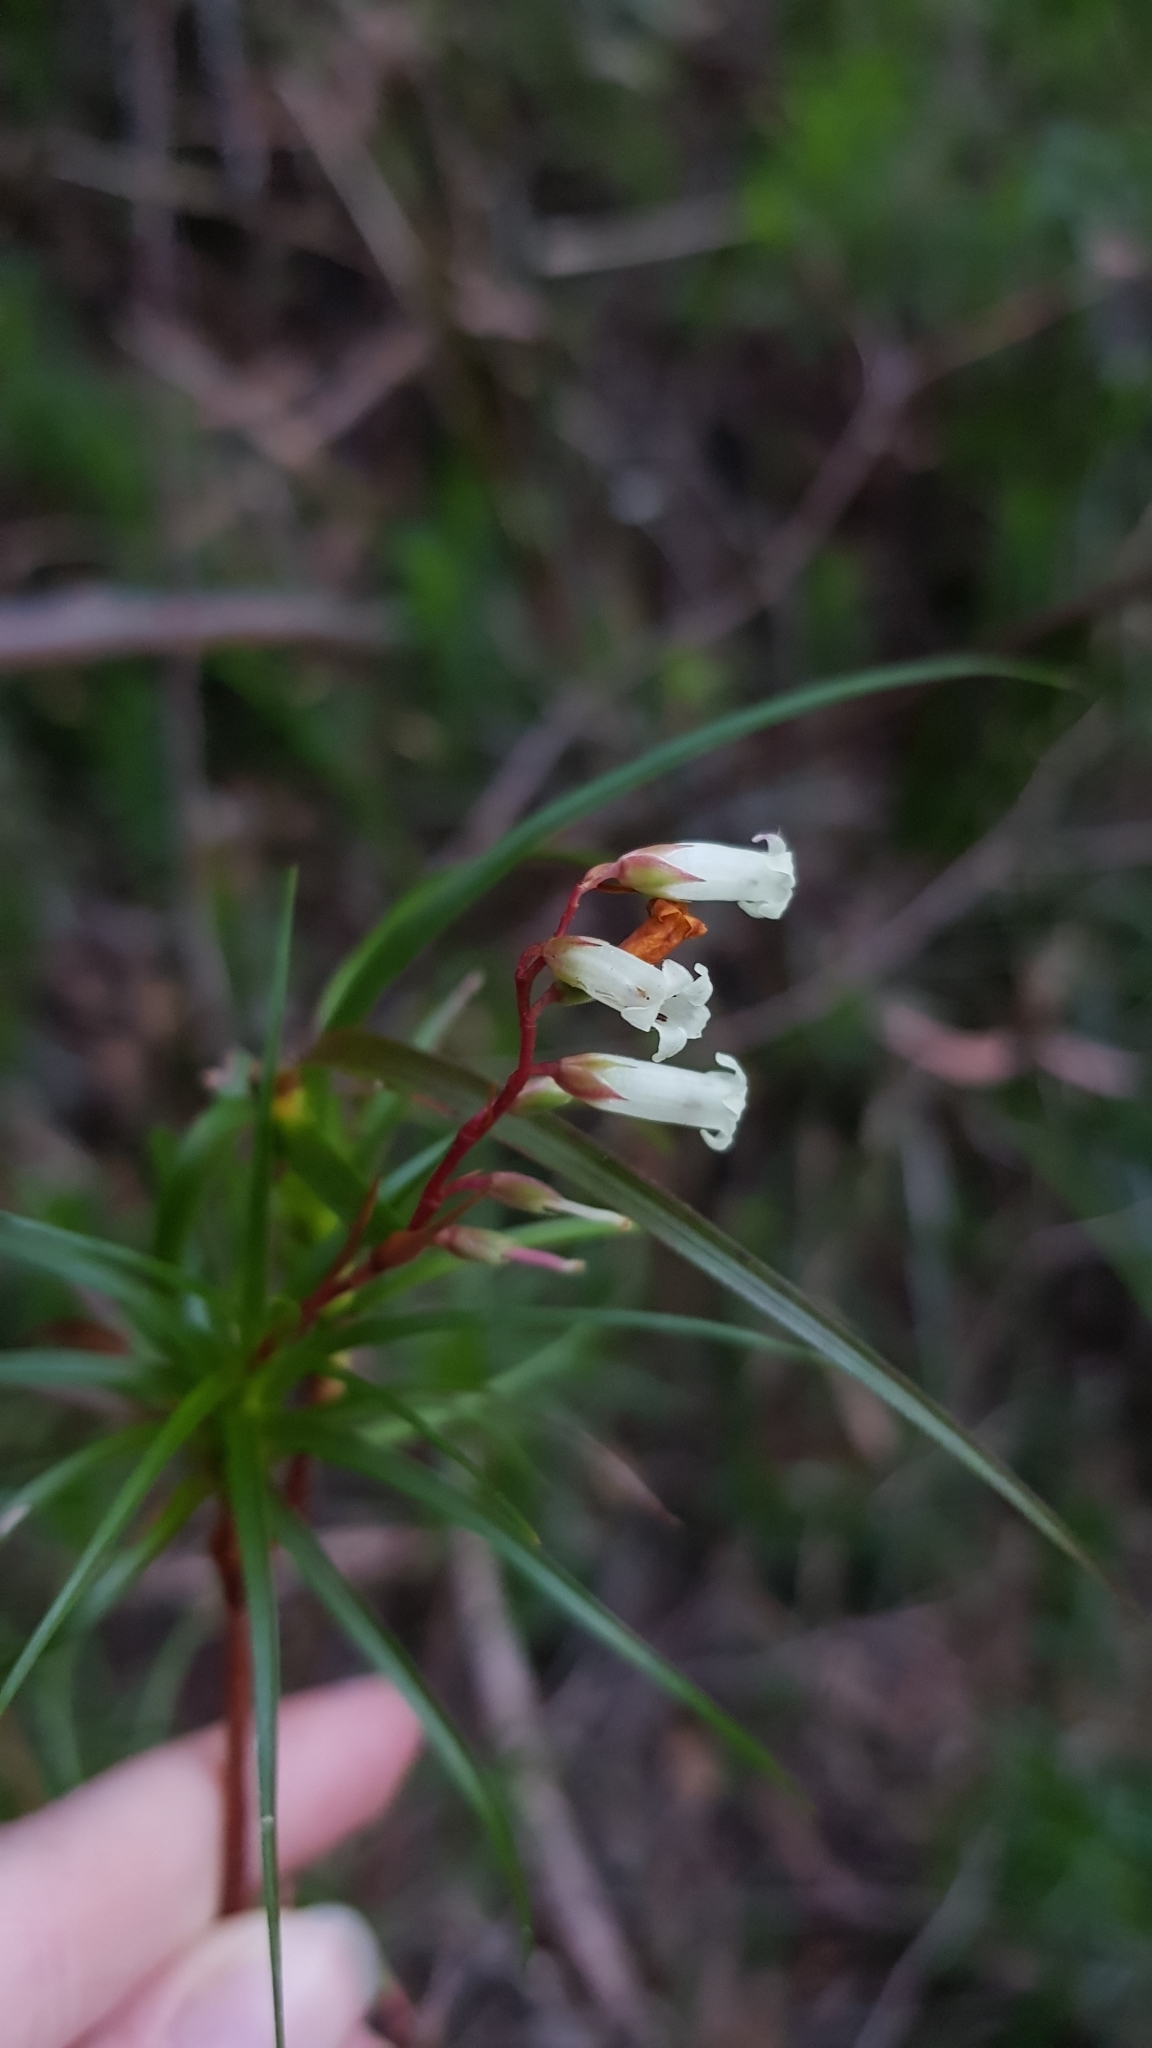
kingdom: Plantae
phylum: Tracheophyta
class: Magnoliopsida
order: Ericales
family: Ericaceae
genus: Dracophyllum
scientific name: Dracophyllum secundum
